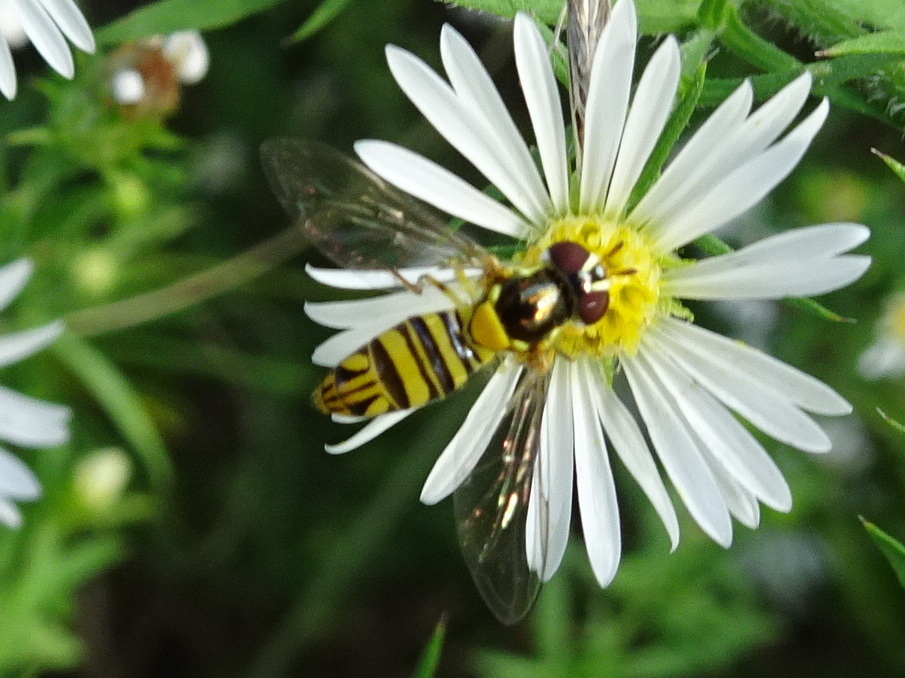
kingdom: Animalia
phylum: Arthropoda
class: Insecta
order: Diptera
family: Syrphidae
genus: Allograpta
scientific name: Allograpta obliqua
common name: Common oblique syrphid
